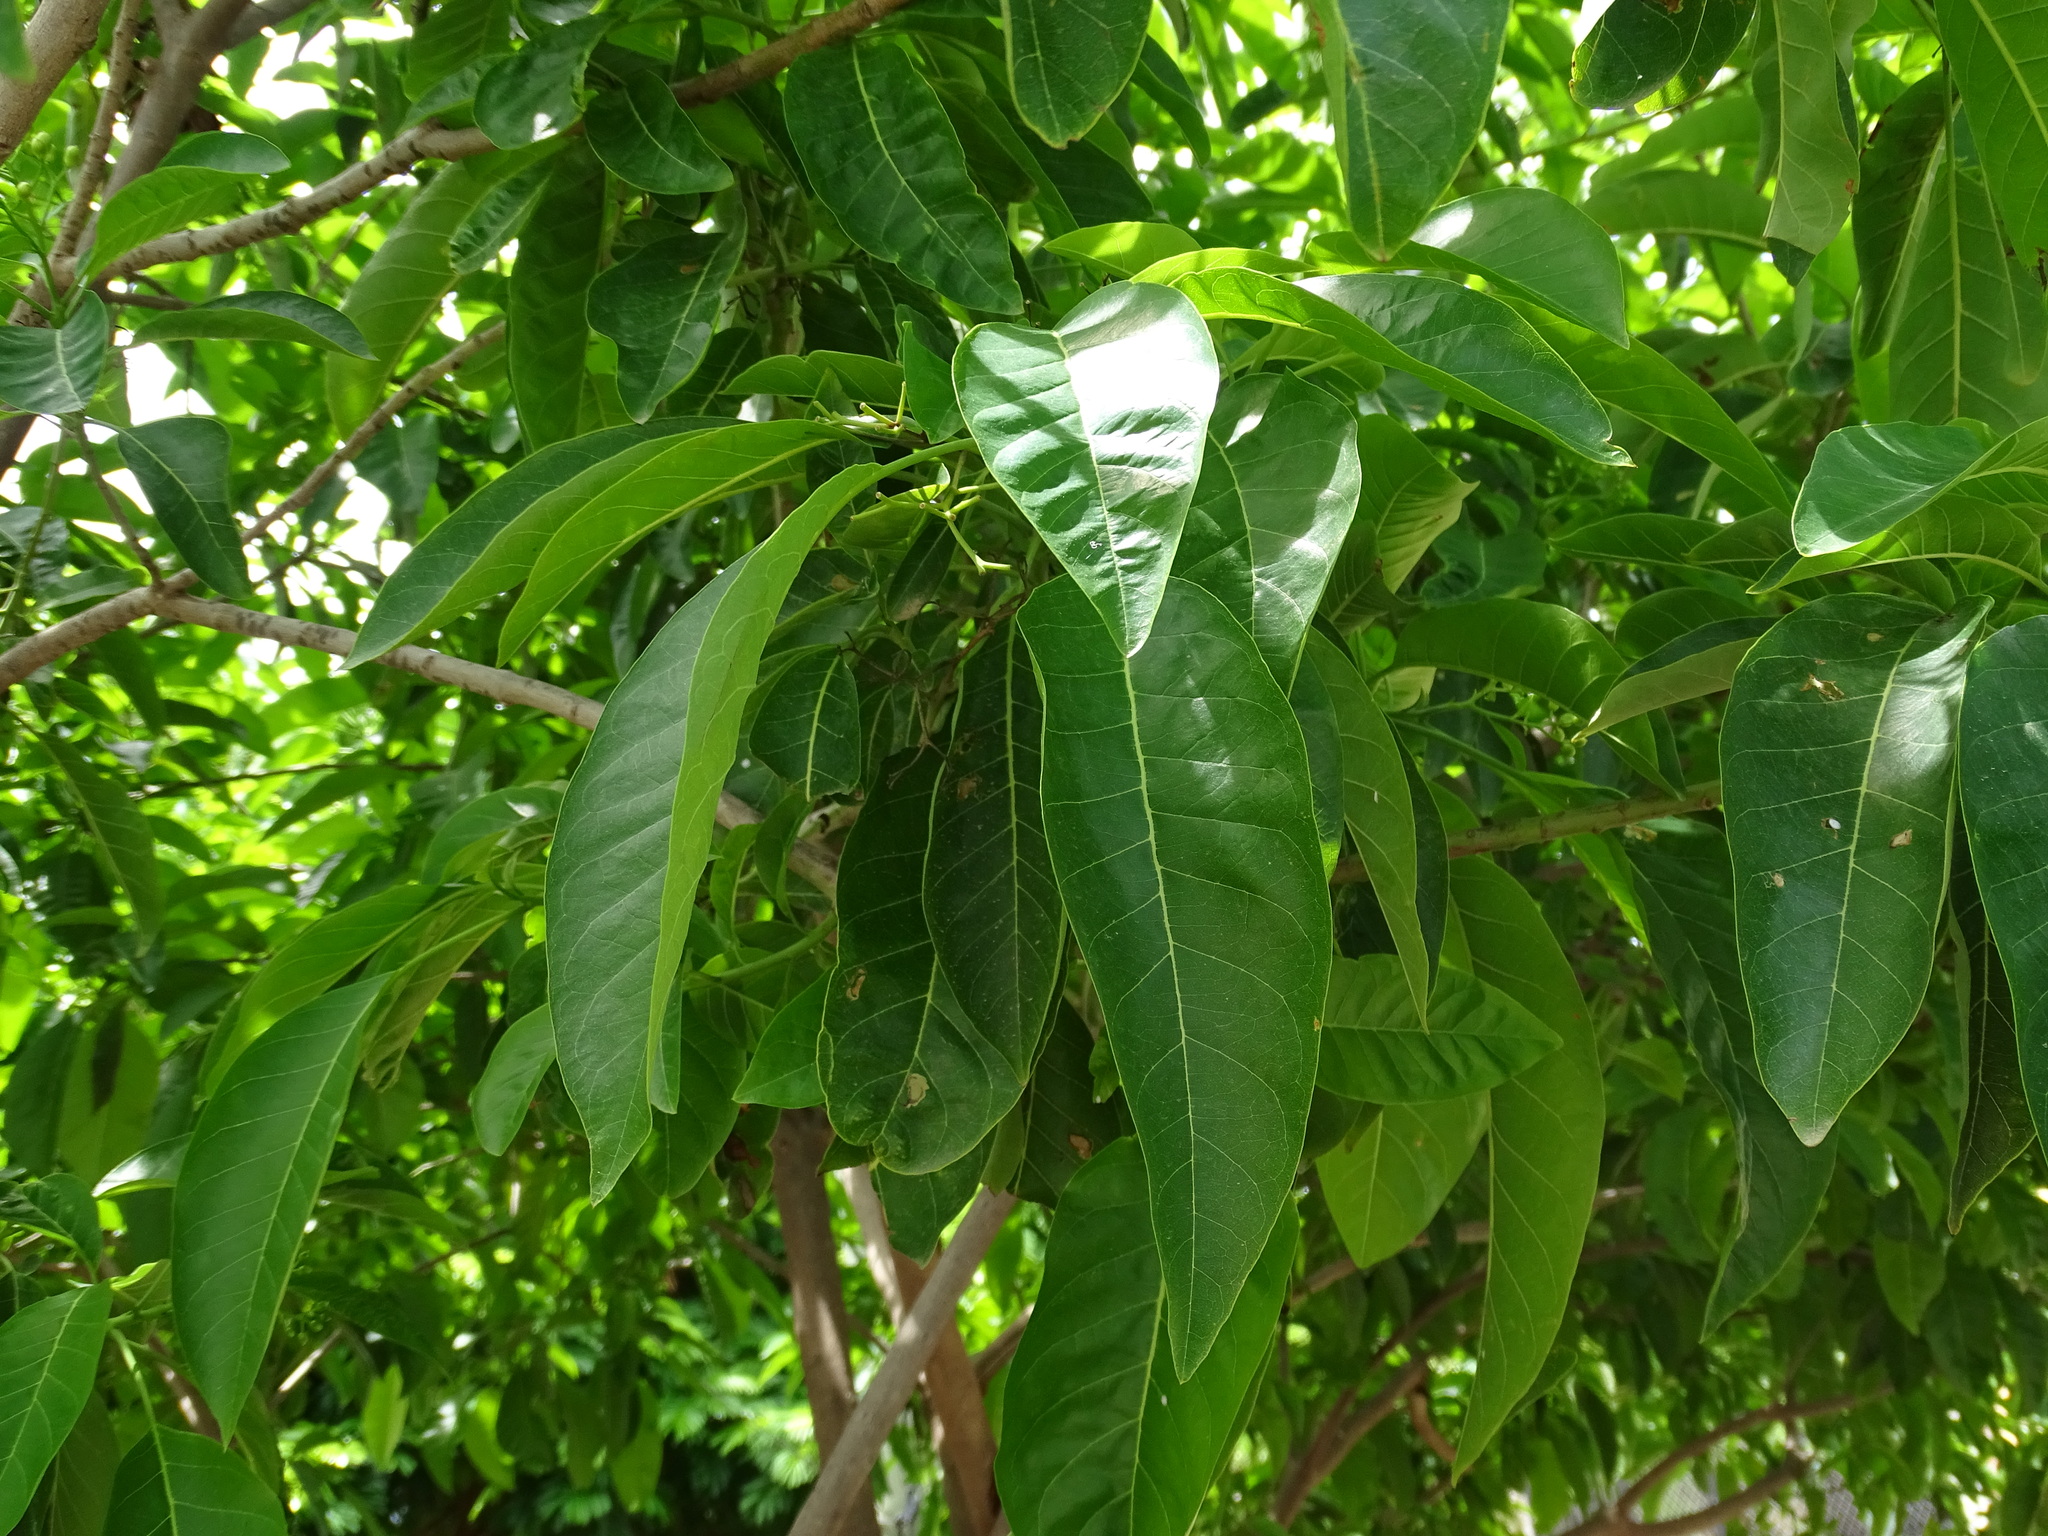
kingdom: Plantae
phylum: Tracheophyta
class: Magnoliopsida
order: Boraginales
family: Ehretiaceae
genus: Bourreria
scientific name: Bourreria huanita
